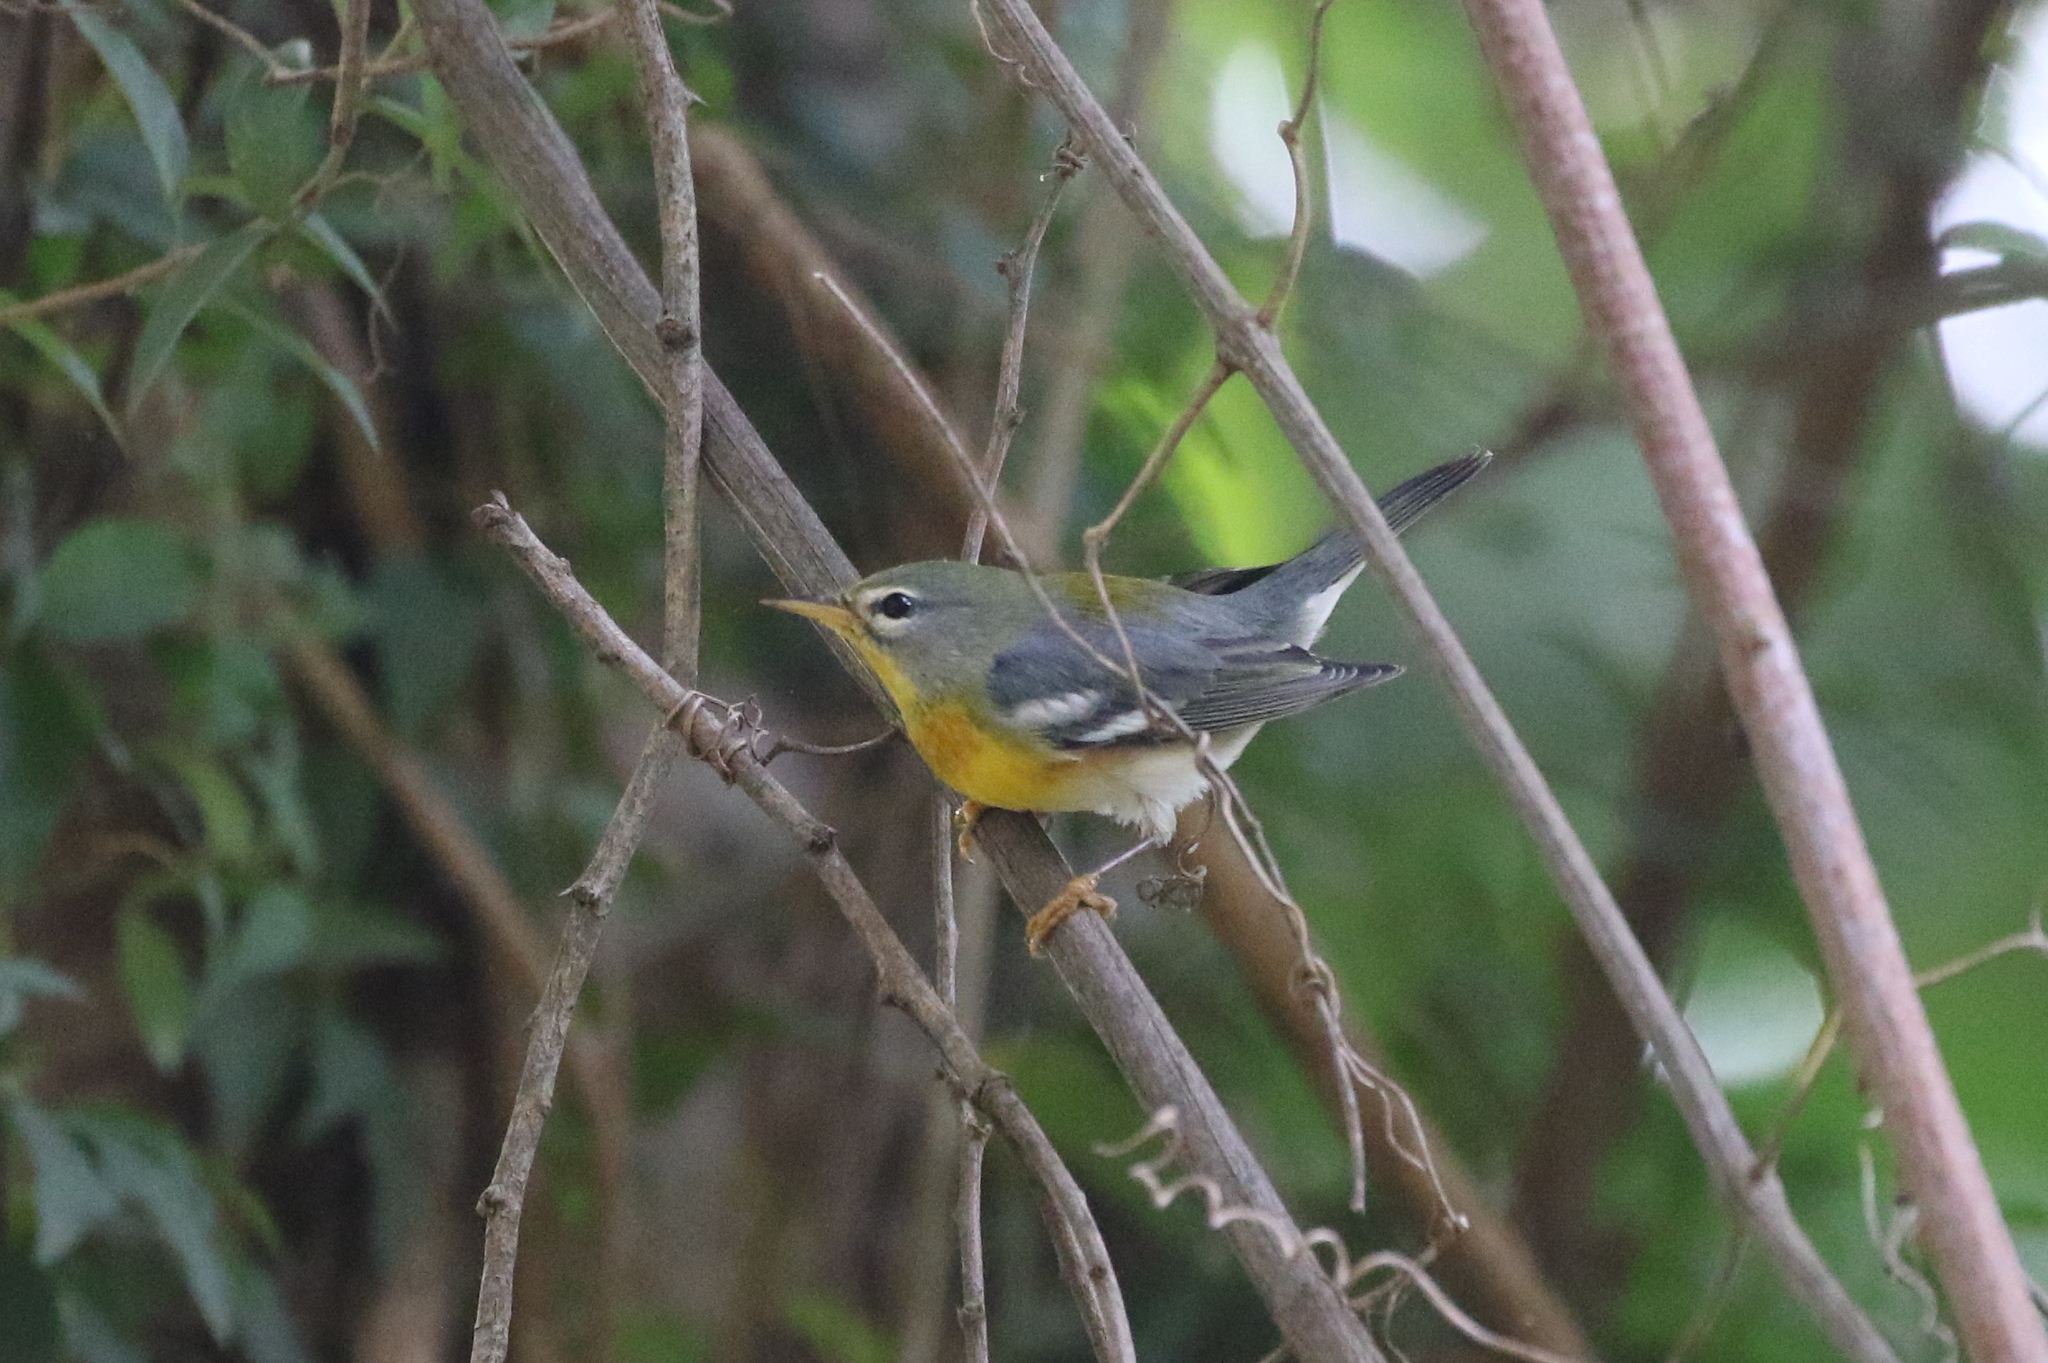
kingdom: Animalia
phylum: Chordata
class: Aves
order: Passeriformes
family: Parulidae
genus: Setophaga
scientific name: Setophaga americana
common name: Northern parula
